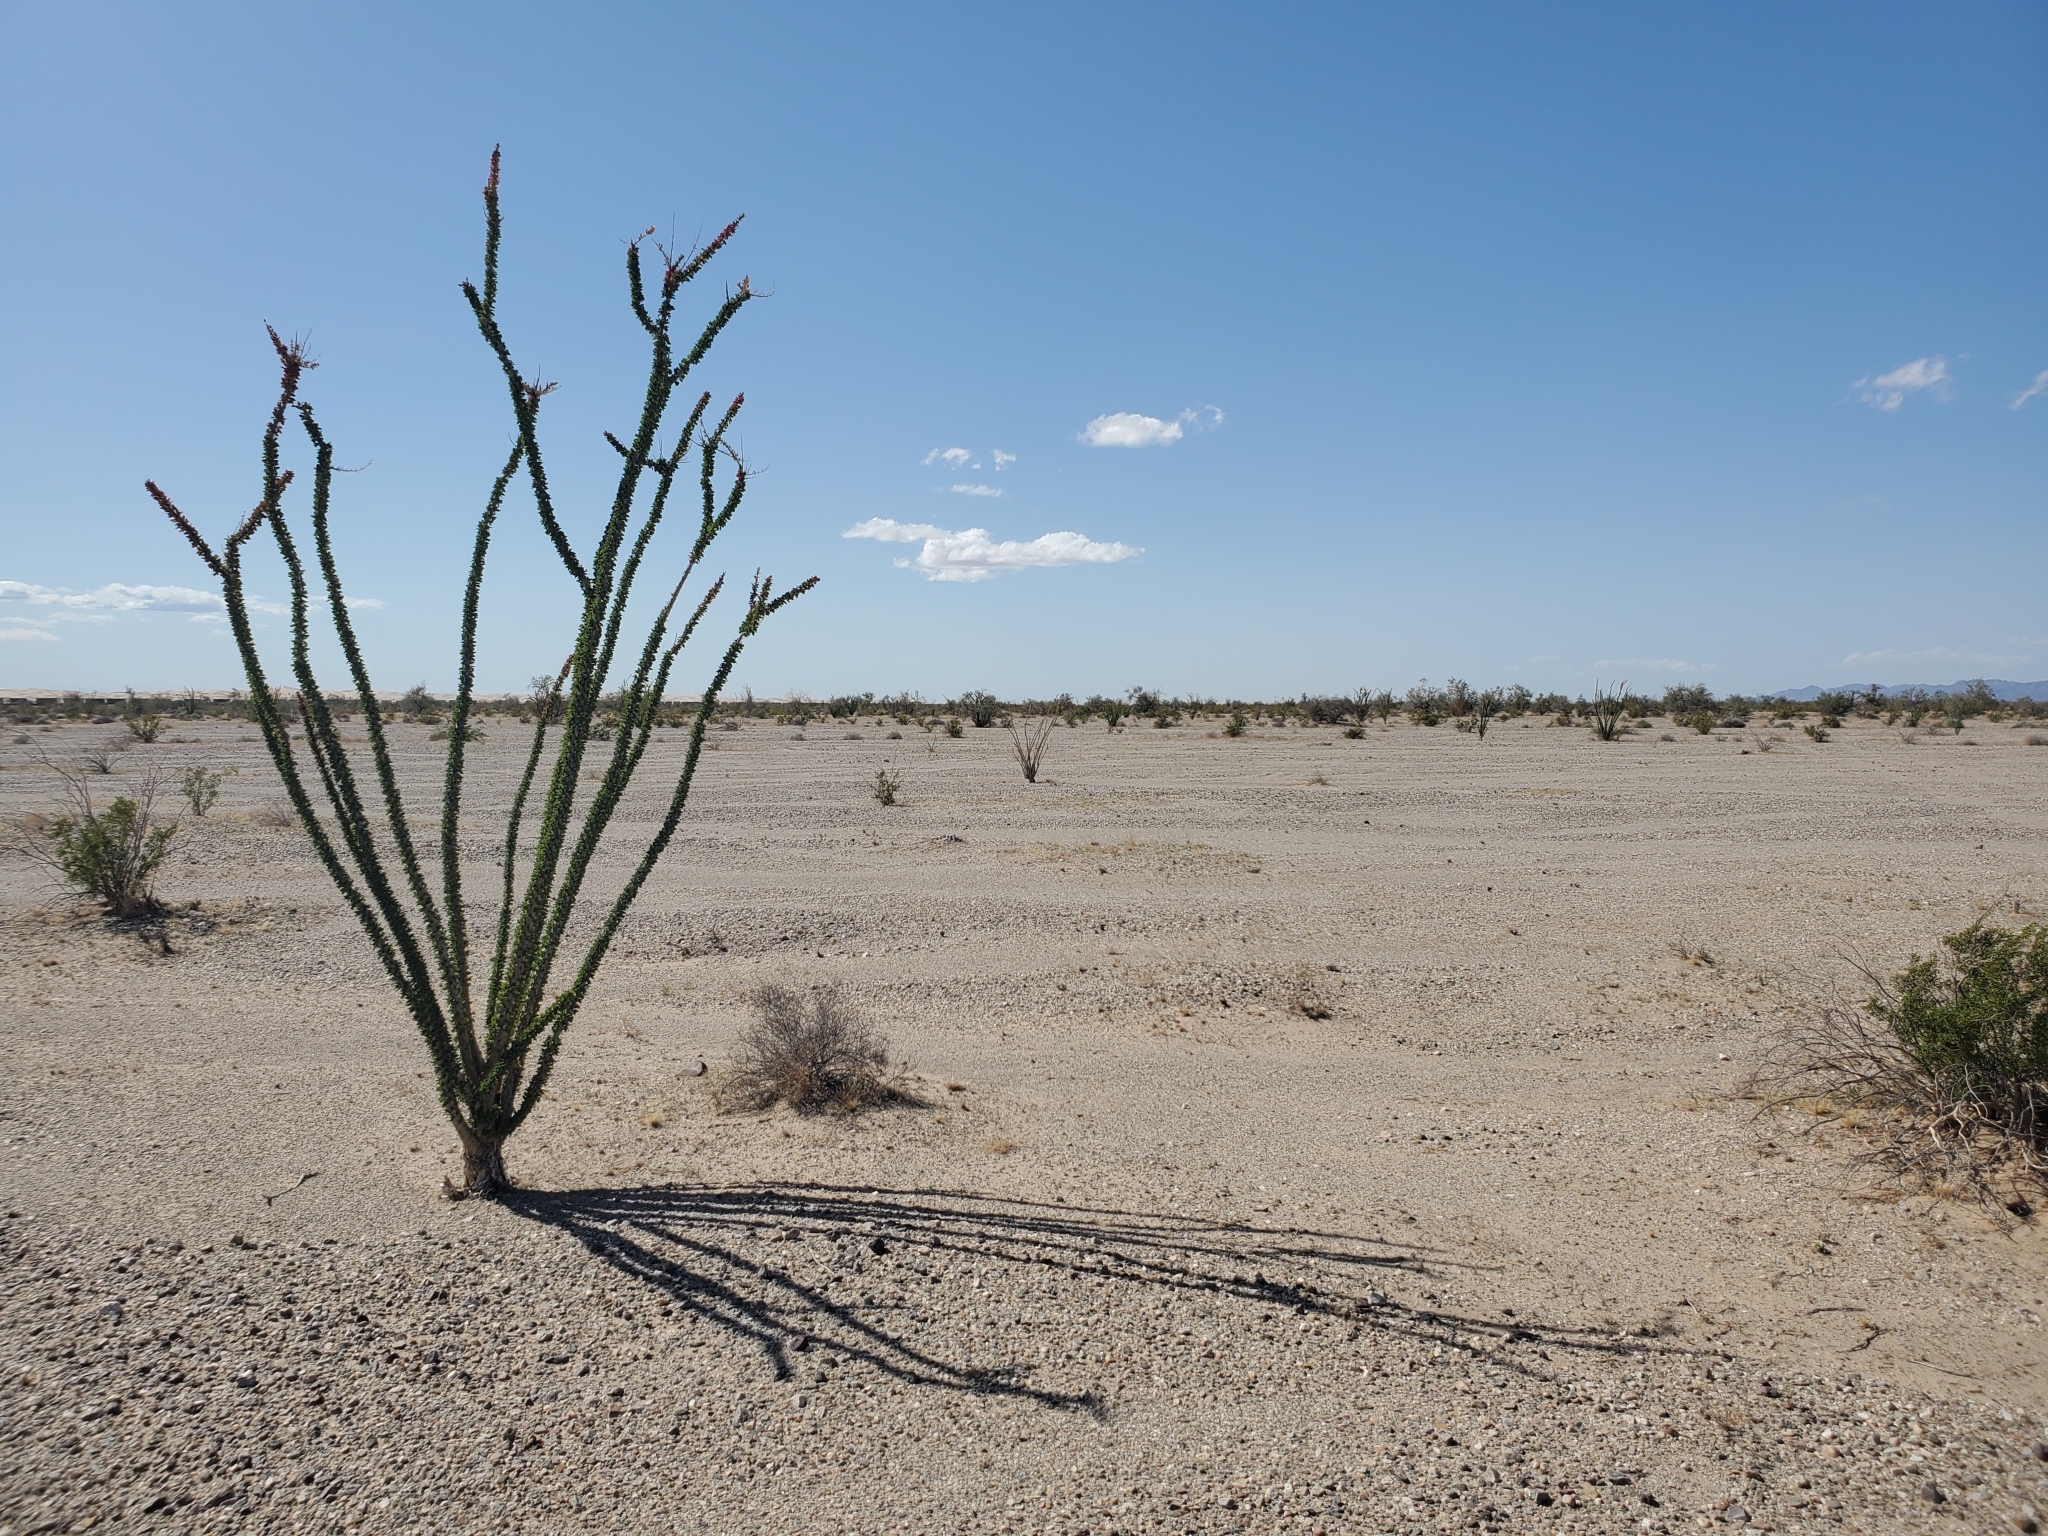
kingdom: Plantae
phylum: Tracheophyta
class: Magnoliopsida
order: Ericales
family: Fouquieriaceae
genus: Fouquieria
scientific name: Fouquieria splendens
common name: Vine-cactus
